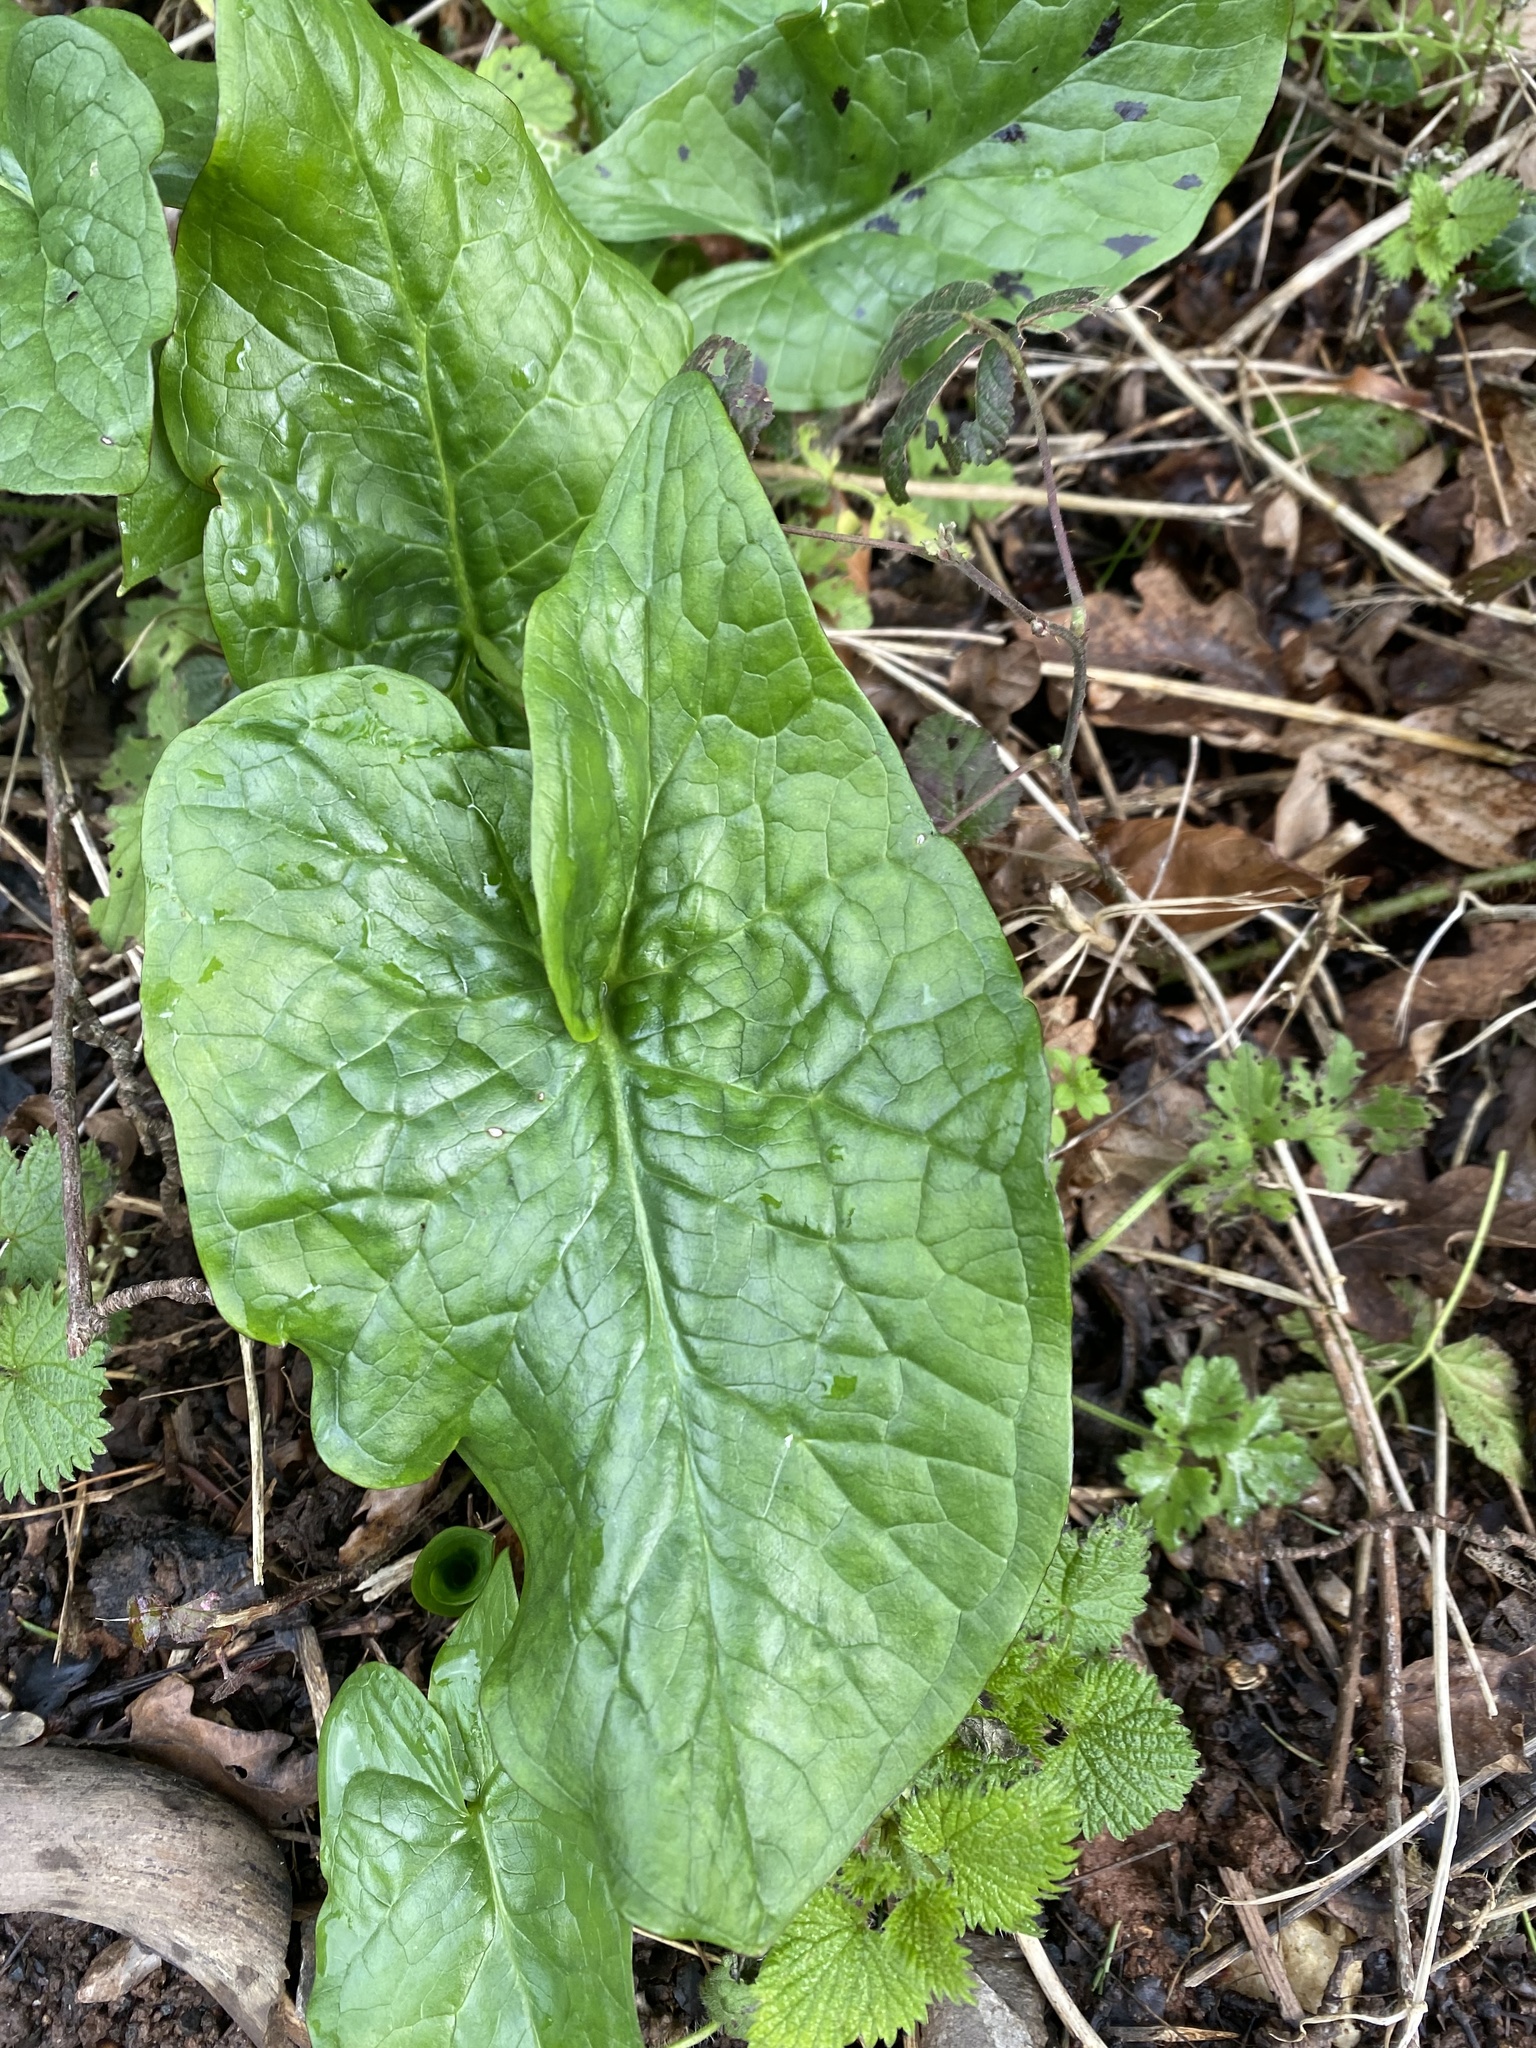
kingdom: Plantae
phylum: Tracheophyta
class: Liliopsida
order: Alismatales
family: Araceae
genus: Arum
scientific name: Arum maculatum
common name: Lords-and-ladies
